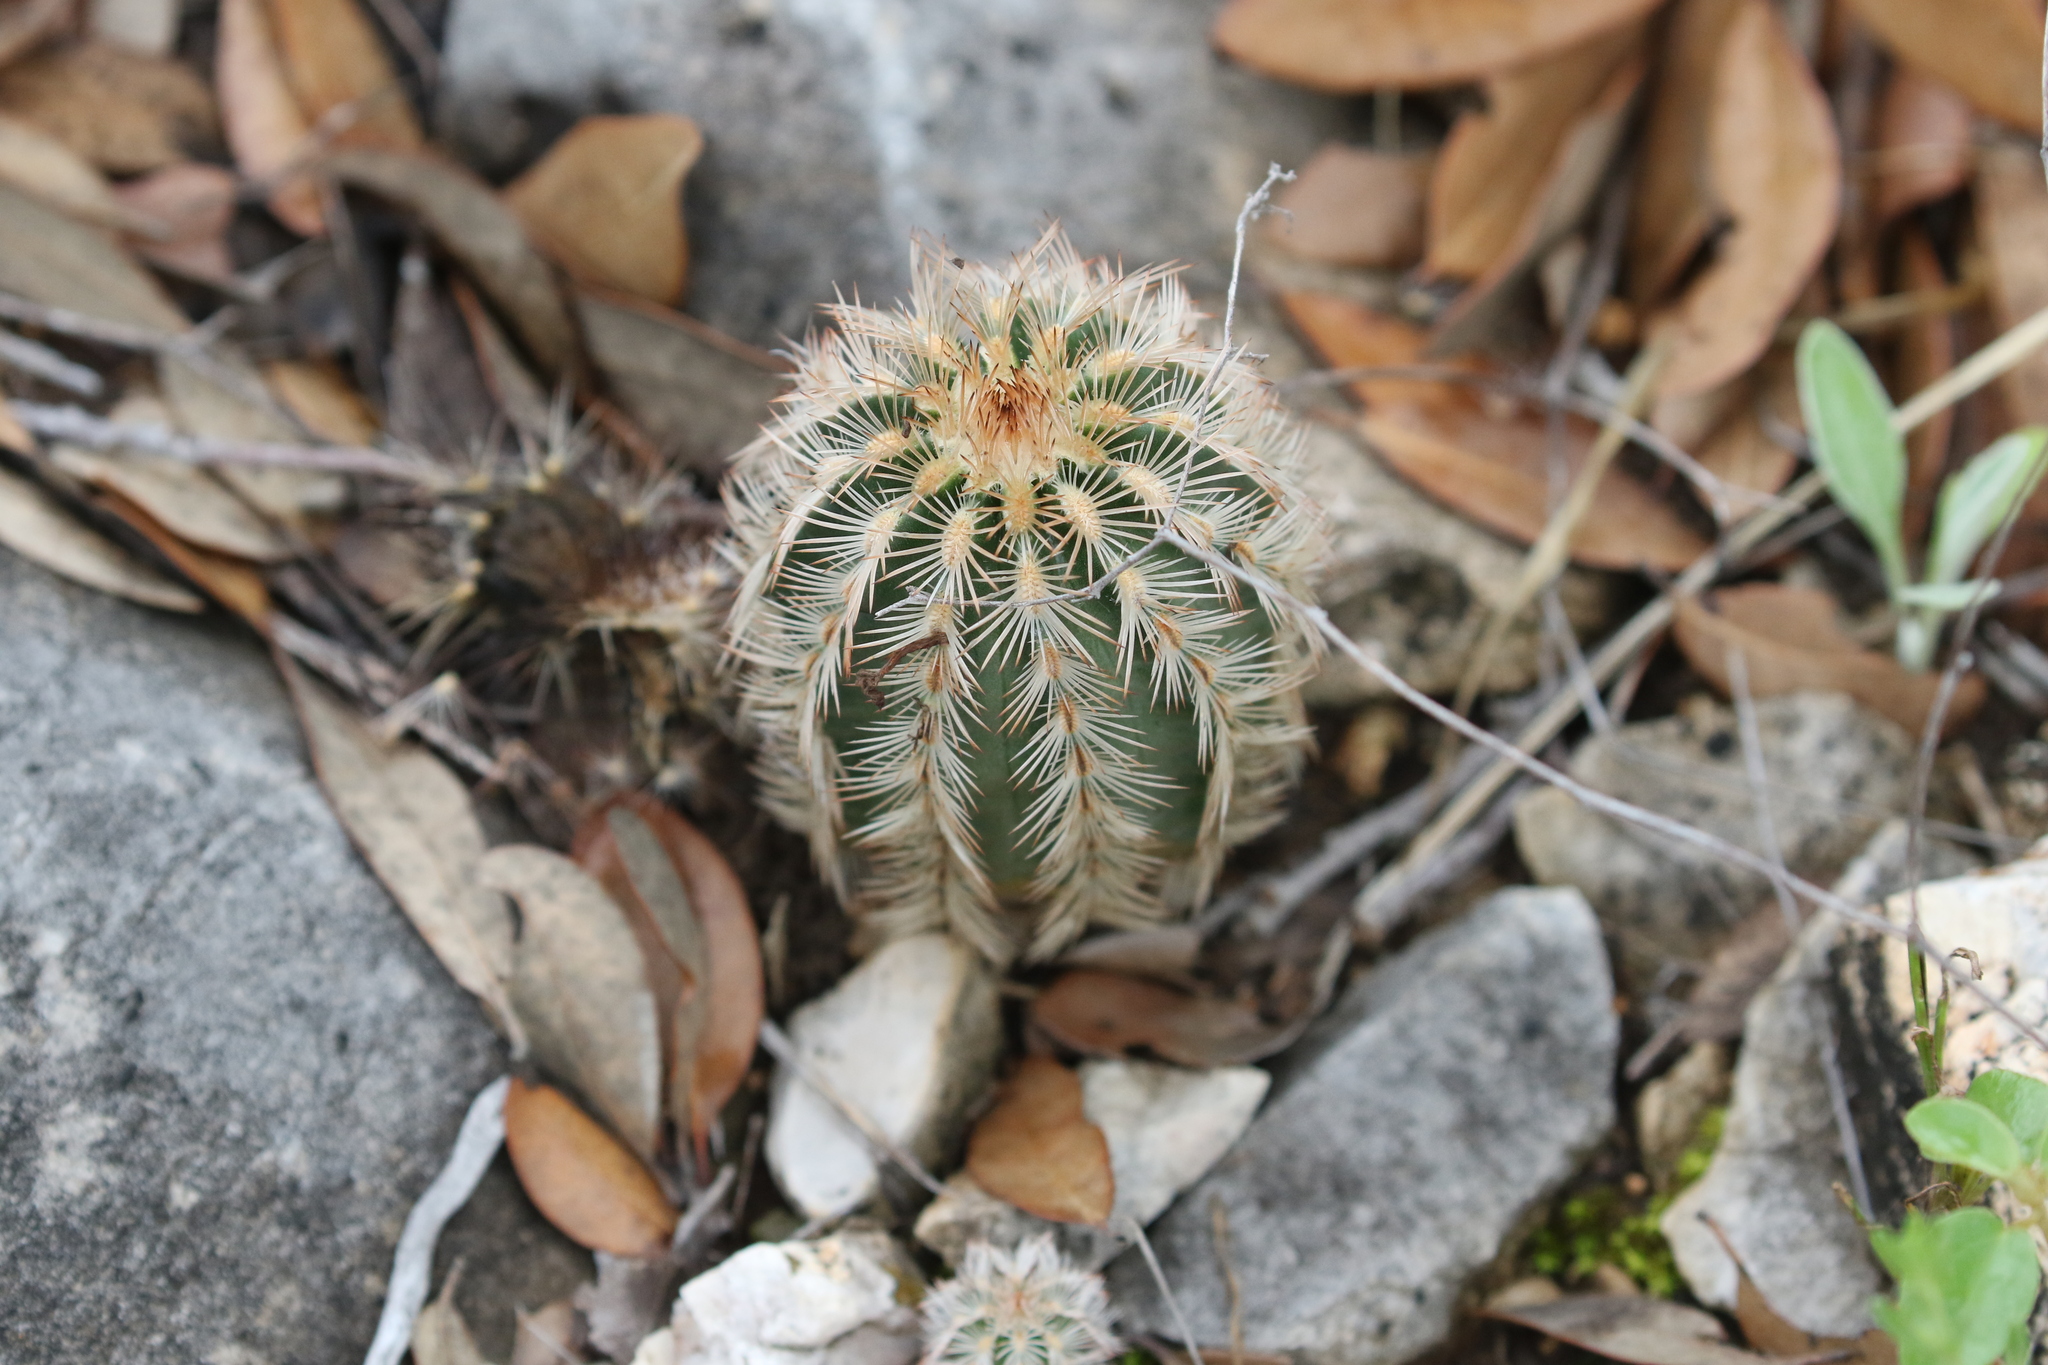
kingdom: Plantae
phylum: Tracheophyta
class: Magnoliopsida
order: Caryophyllales
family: Cactaceae
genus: Echinocereus
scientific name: Echinocereus reichenbachii
